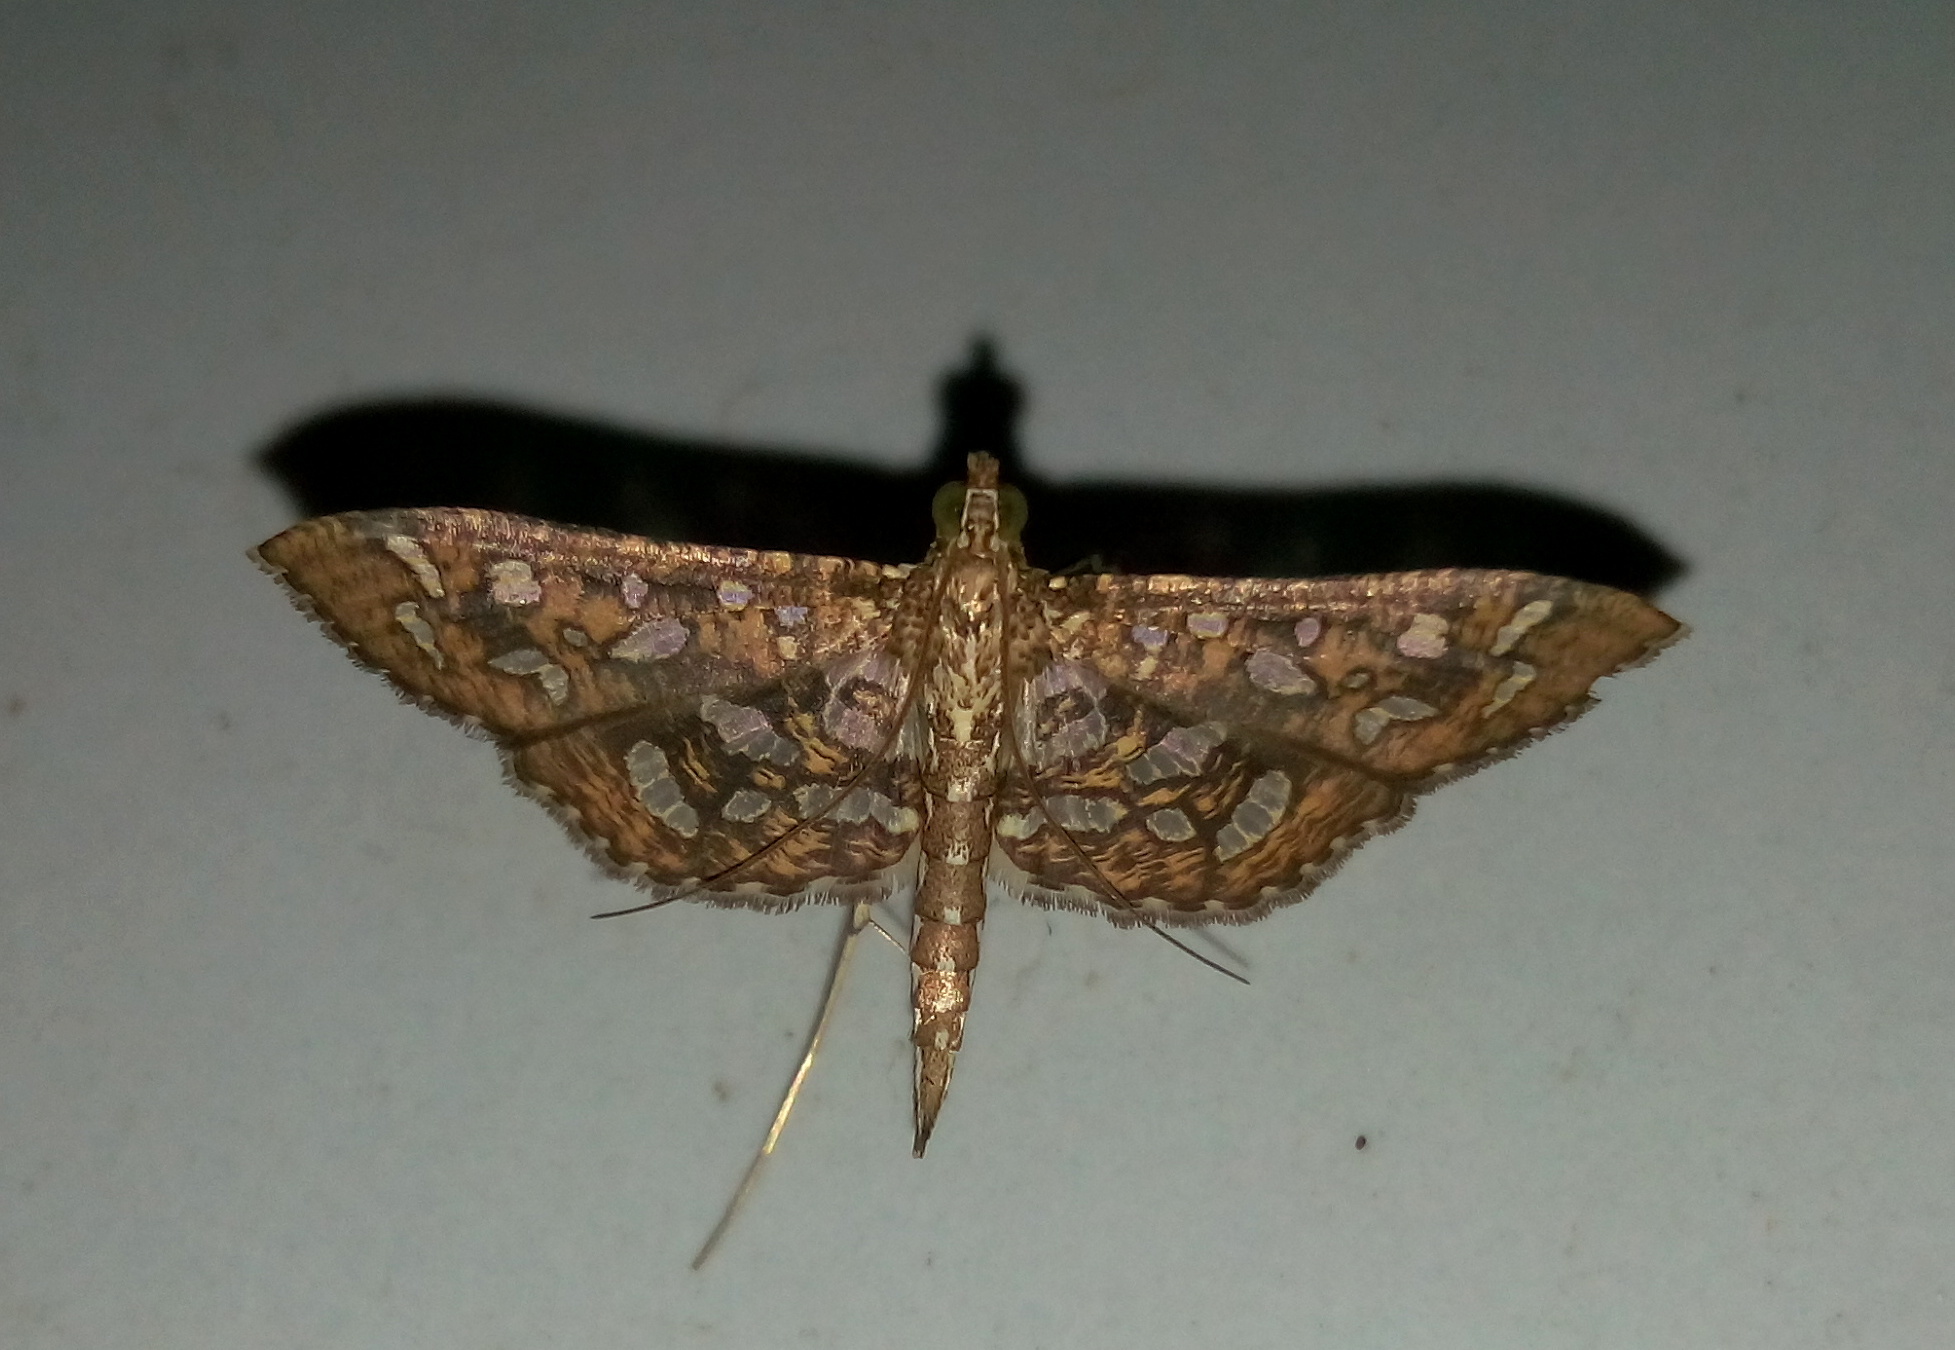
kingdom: Animalia
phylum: Arthropoda
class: Insecta
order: Lepidoptera
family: Crambidae
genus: Nausinoe
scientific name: Nausinoe geometralis
